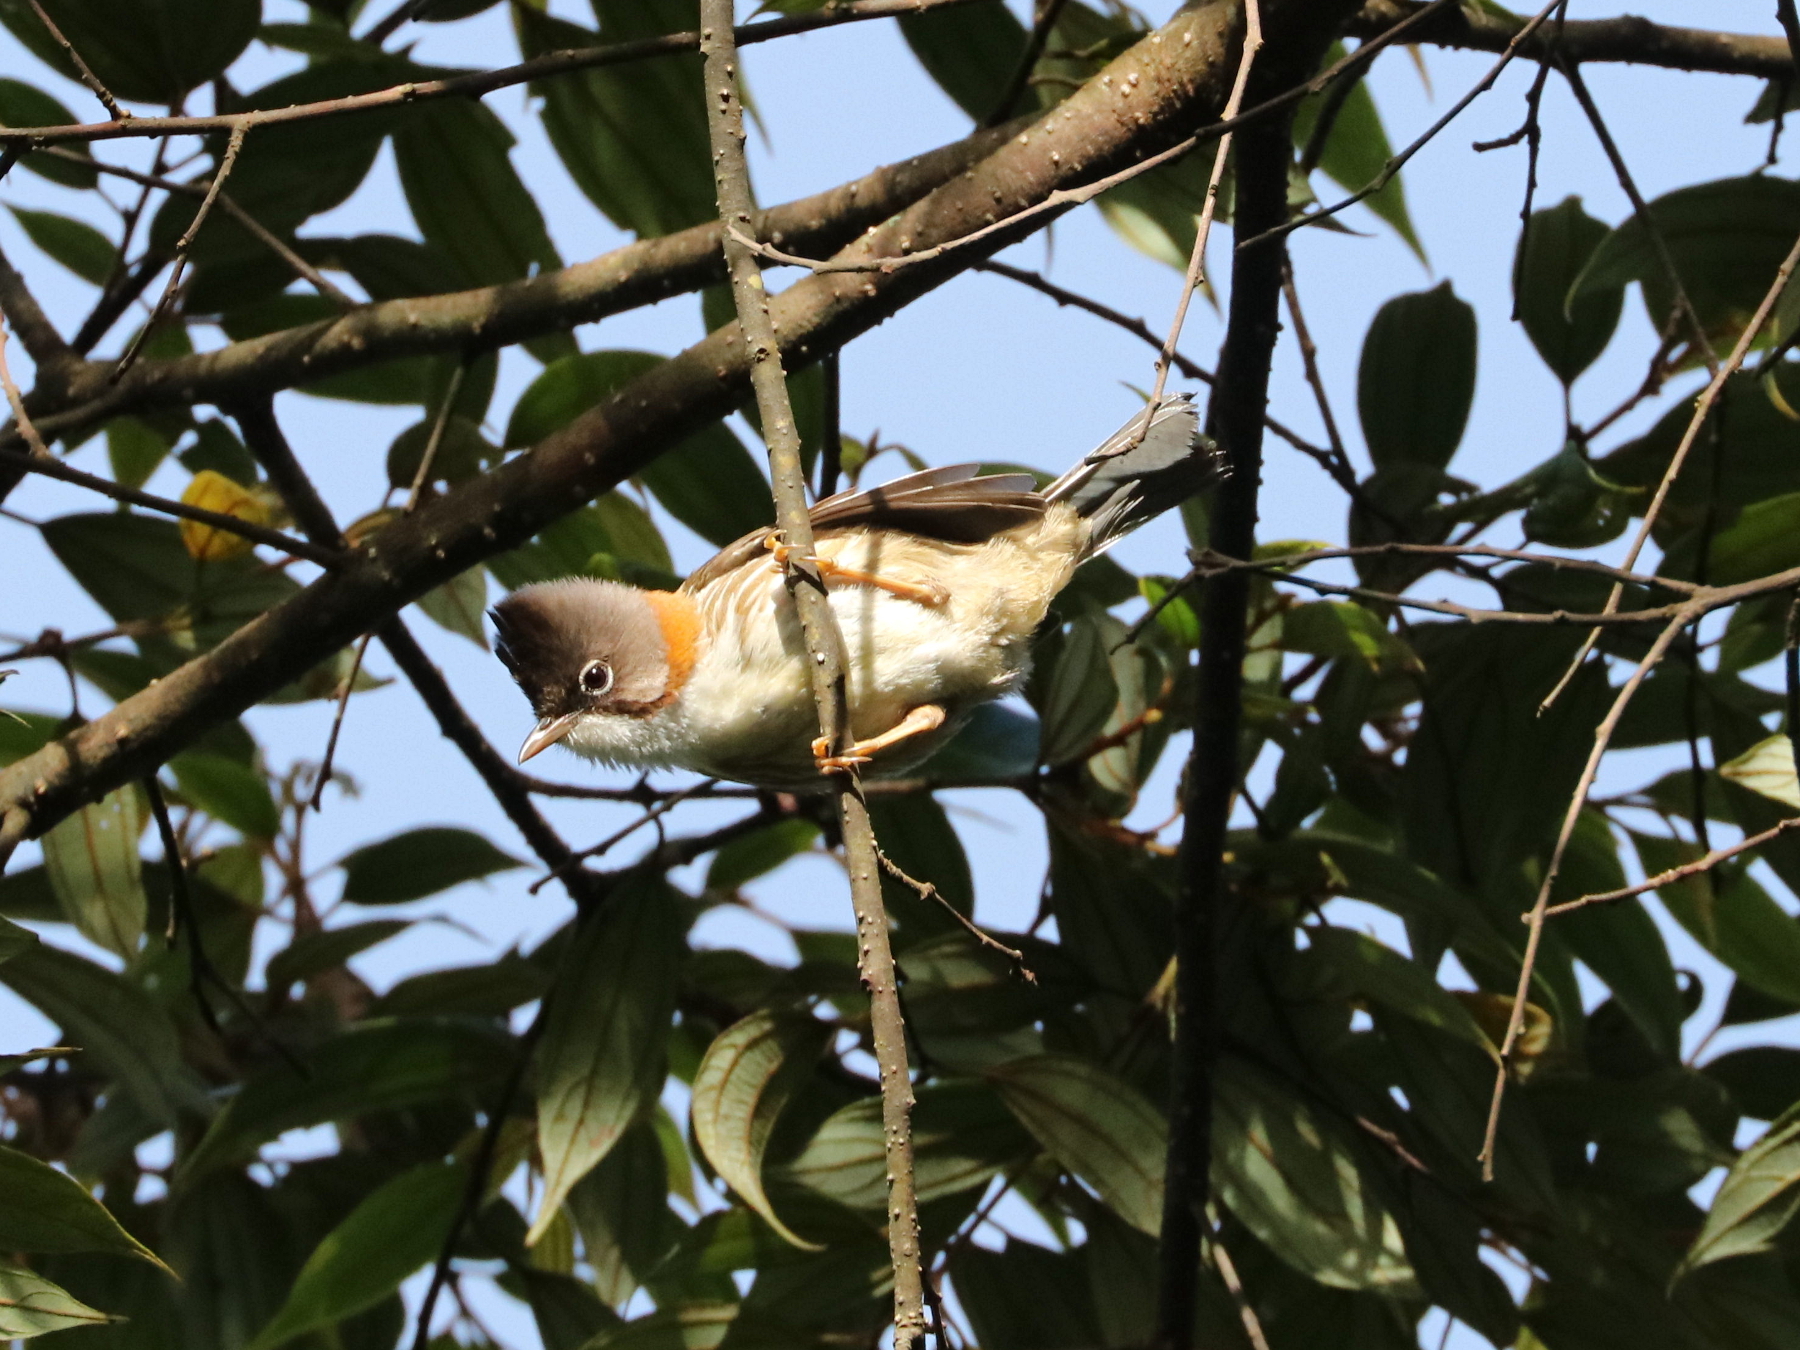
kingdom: Animalia
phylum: Chordata
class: Aves
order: Passeriformes
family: Zosteropidae
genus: Yuhina
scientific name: Yuhina flavicollis
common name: Whiskered yuhina
